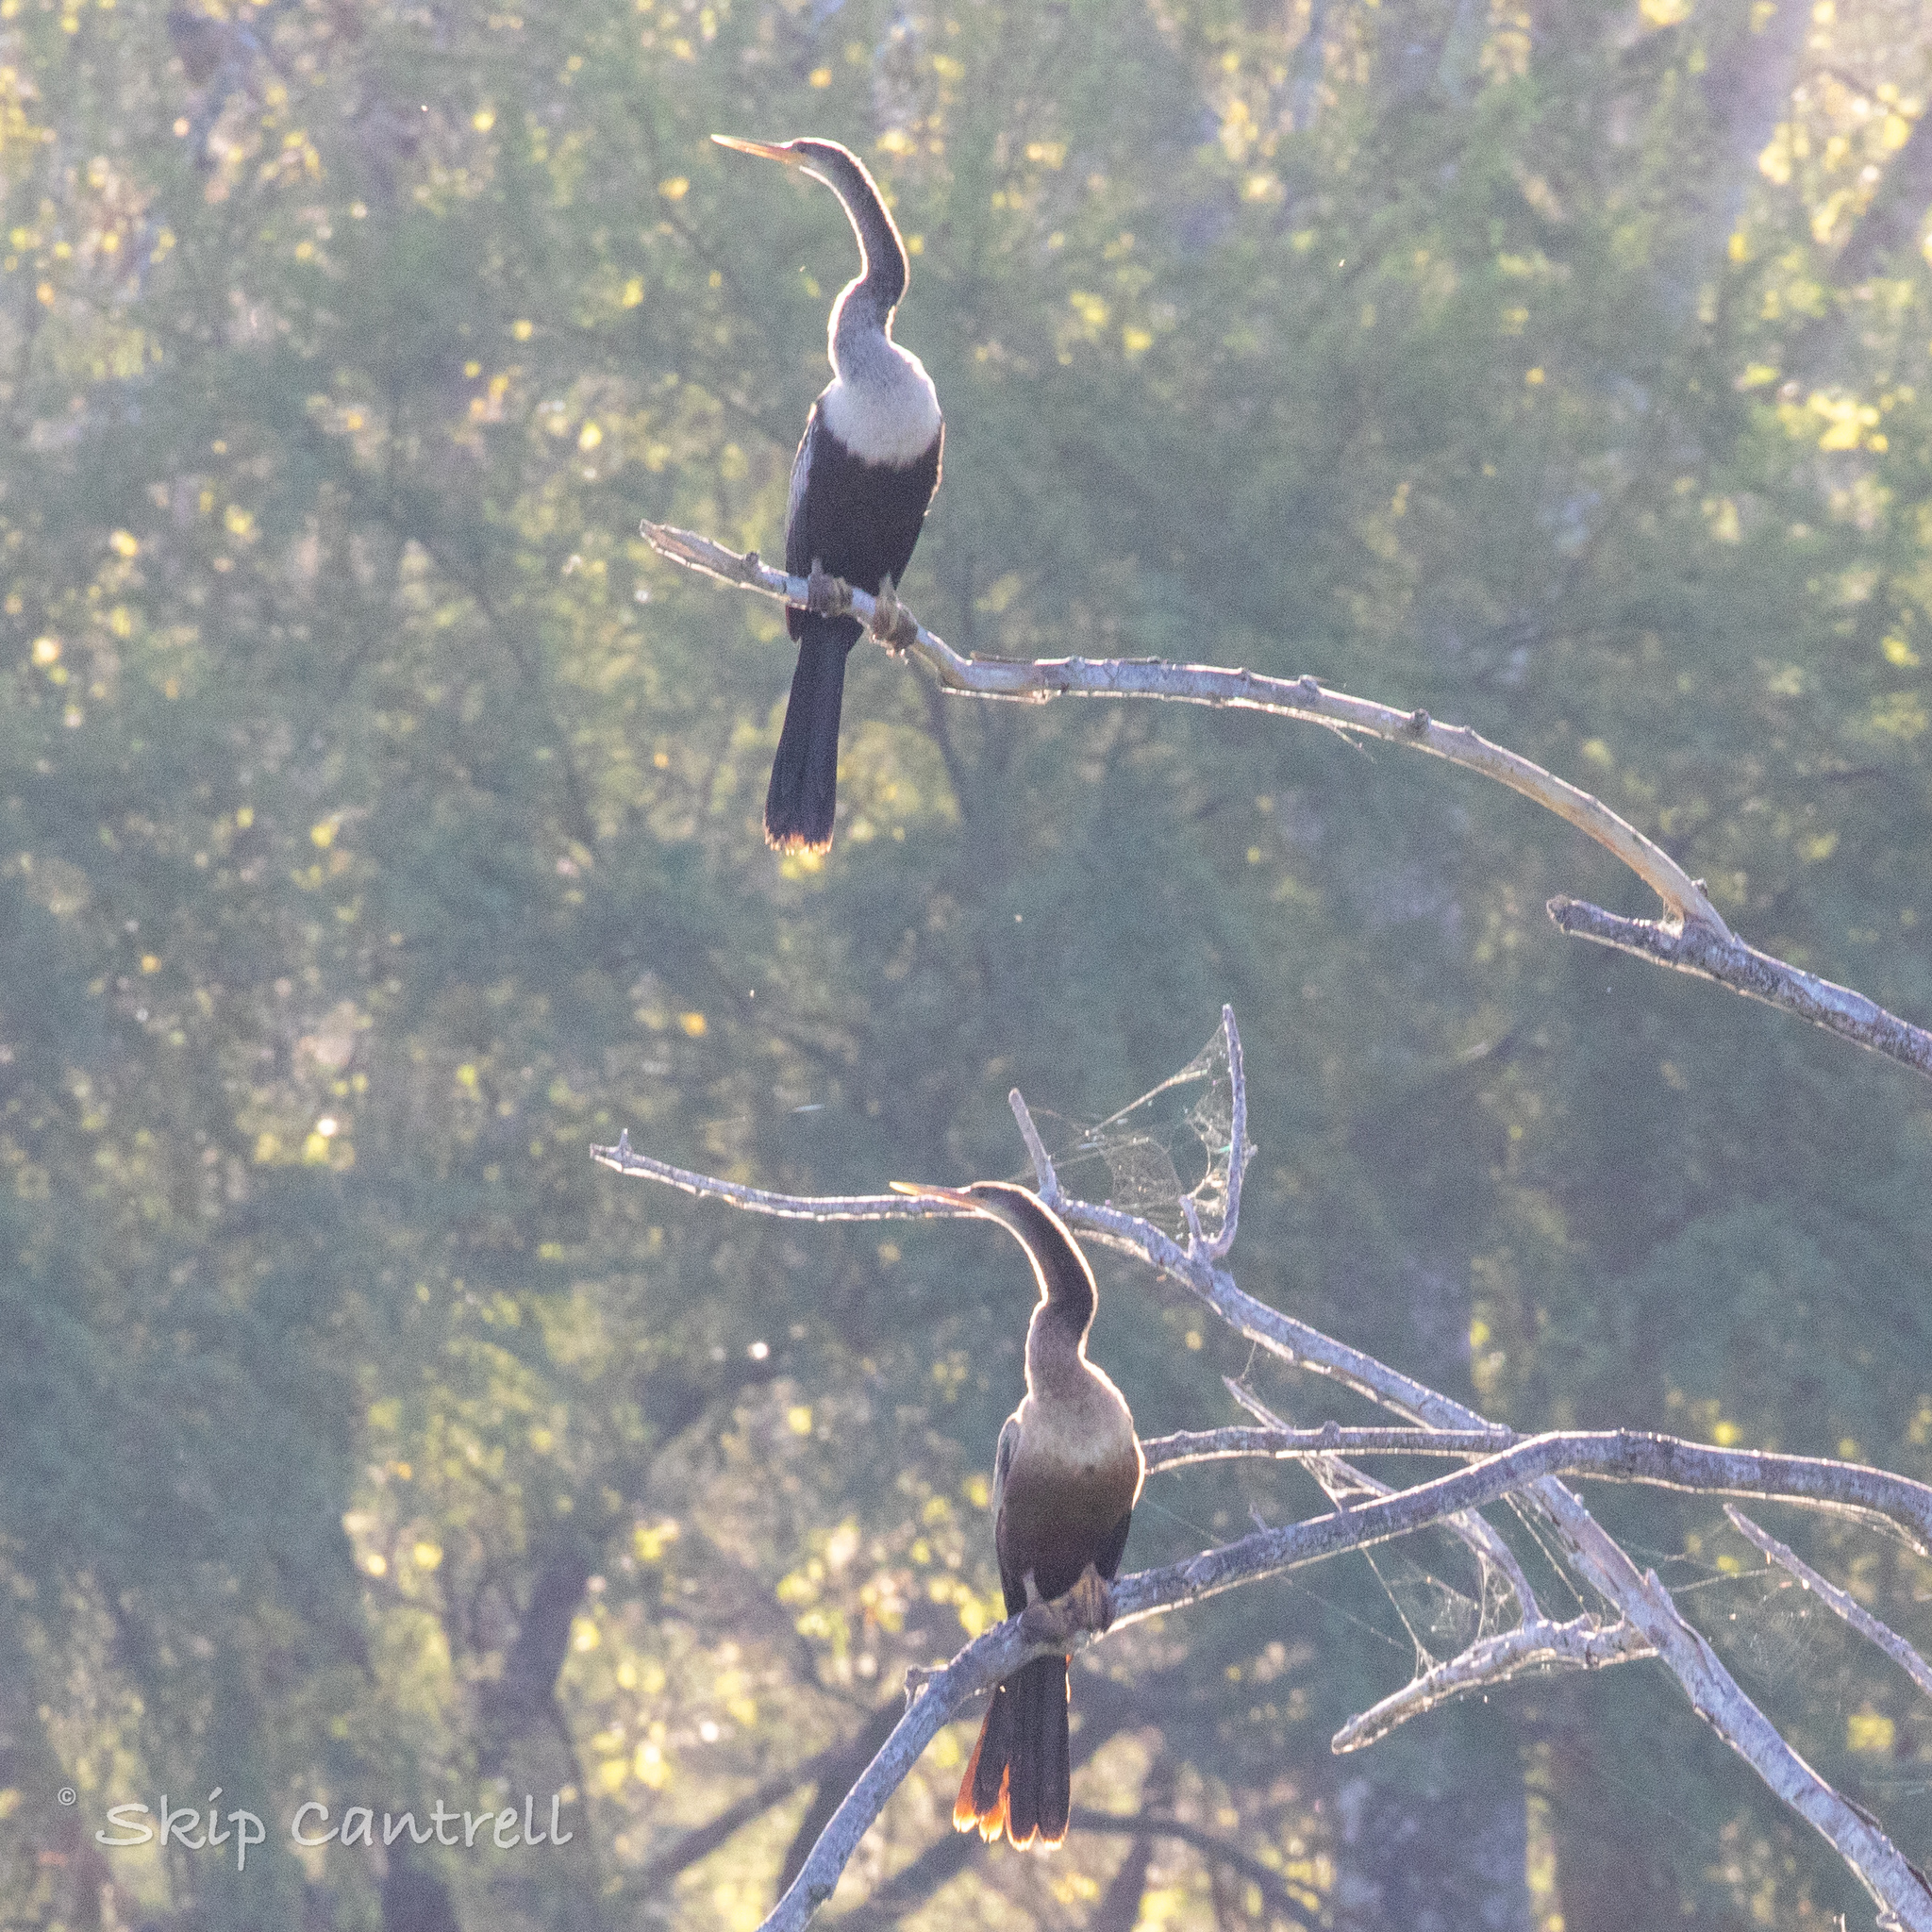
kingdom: Animalia
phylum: Chordata
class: Aves
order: Suliformes
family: Anhingidae
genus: Anhinga
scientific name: Anhinga anhinga
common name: Anhinga
